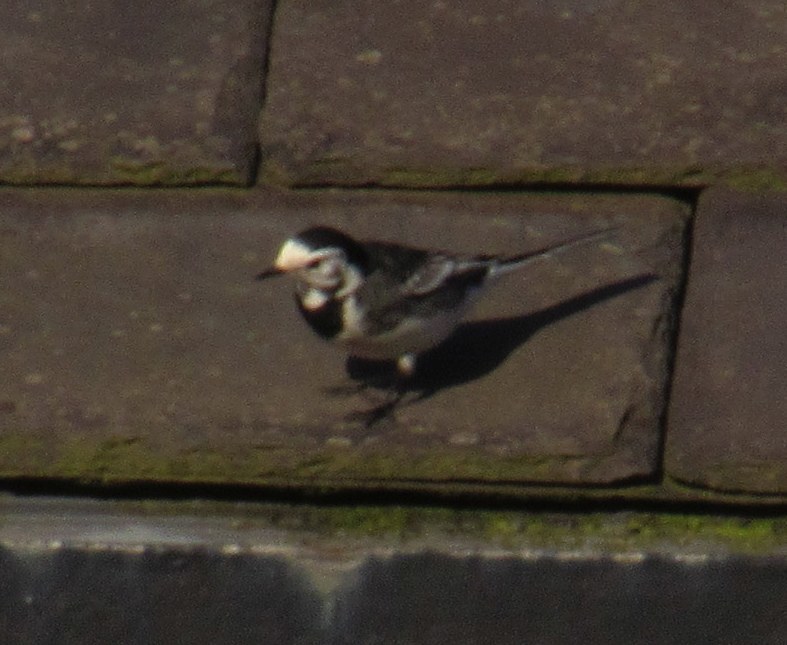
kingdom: Animalia
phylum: Chordata
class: Aves
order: Passeriformes
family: Motacillidae
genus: Motacilla
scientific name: Motacilla alba
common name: White wagtail
